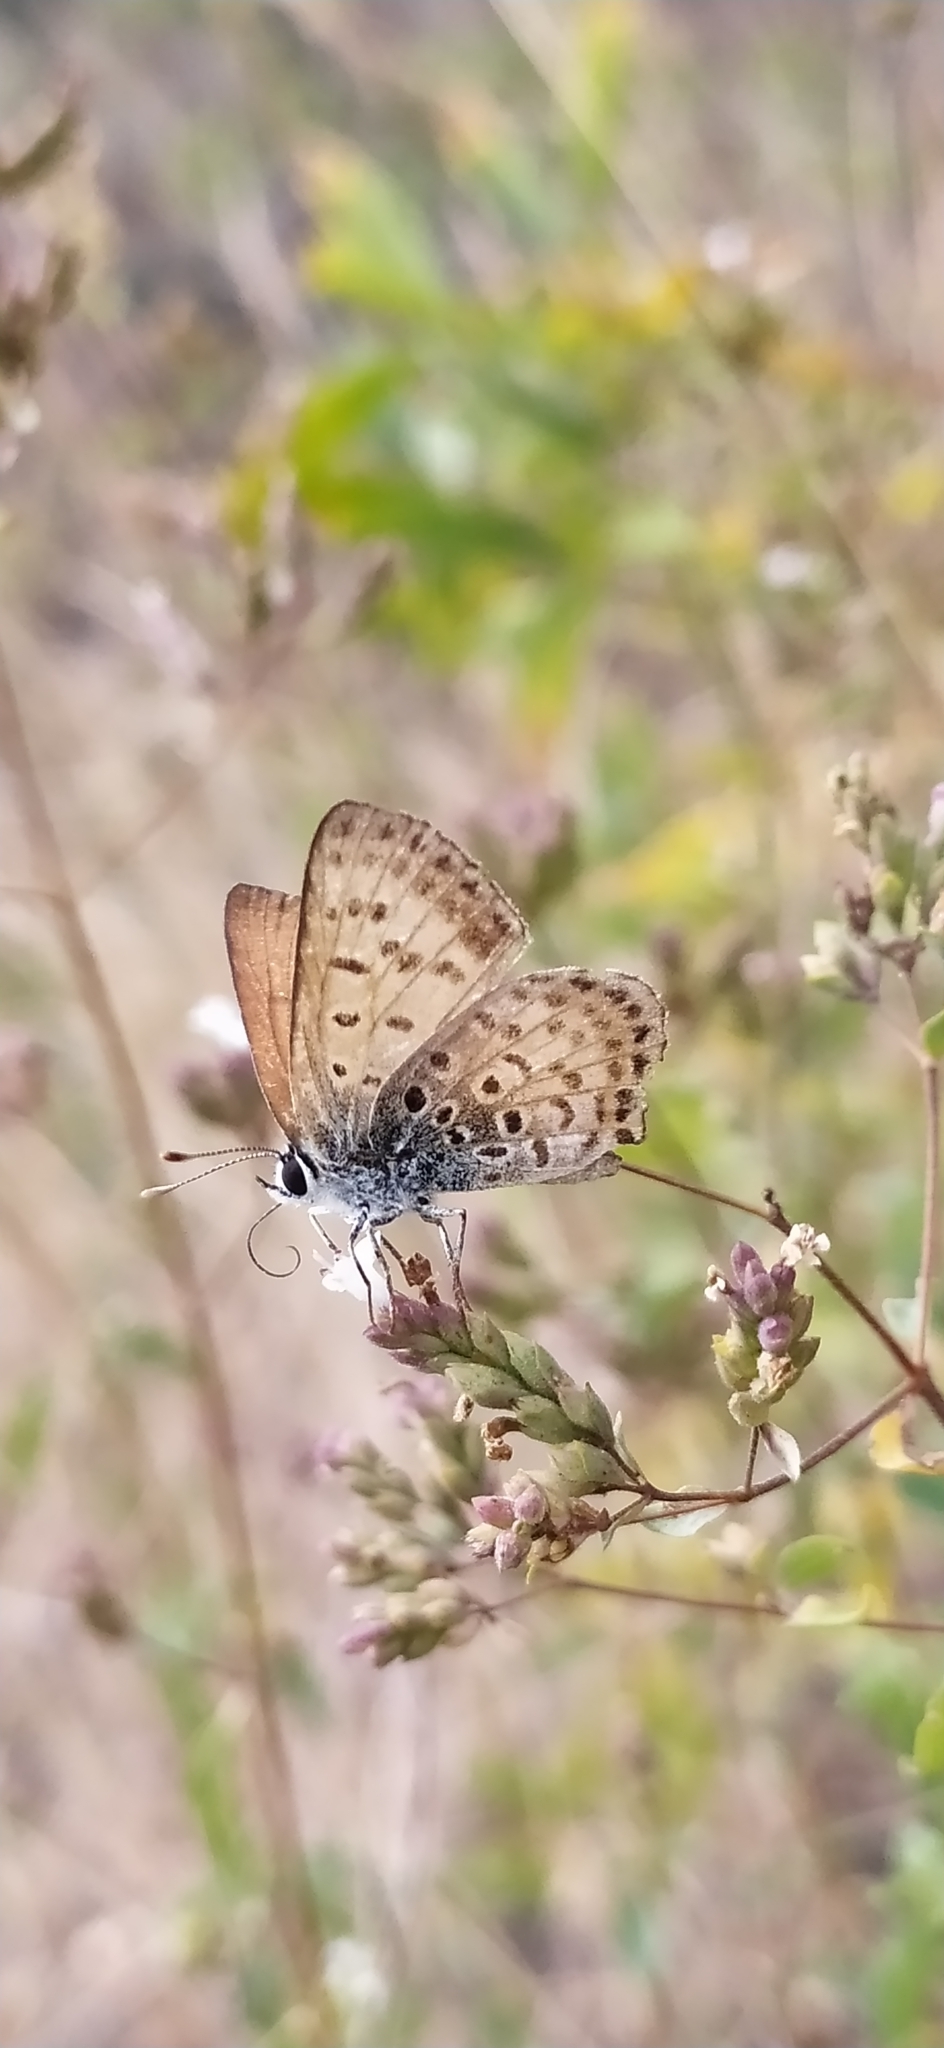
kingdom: Animalia
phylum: Arthropoda
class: Insecta
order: Lepidoptera
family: Lycaenidae
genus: Lycaena
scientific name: Lycaena
